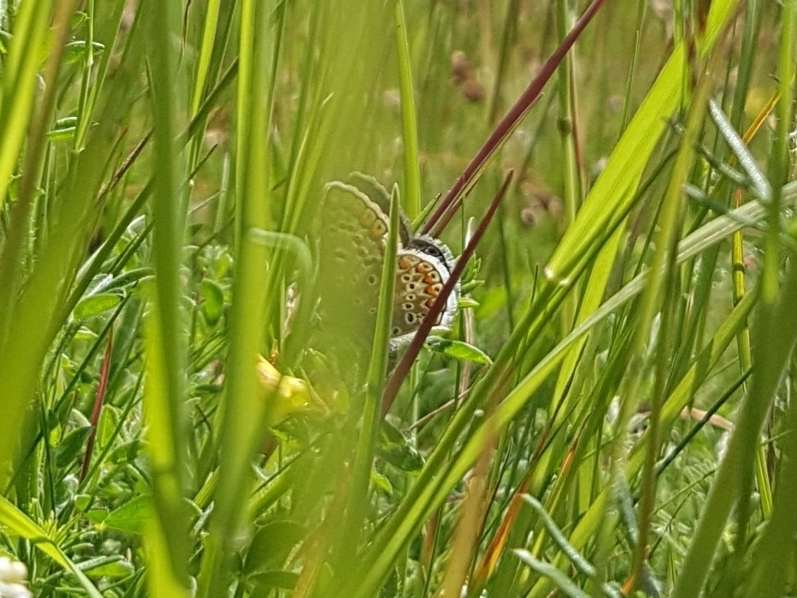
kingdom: Animalia
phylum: Arthropoda
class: Insecta
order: Lepidoptera
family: Lycaenidae
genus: Polyommatus
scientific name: Polyommatus icarus
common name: Common blue
